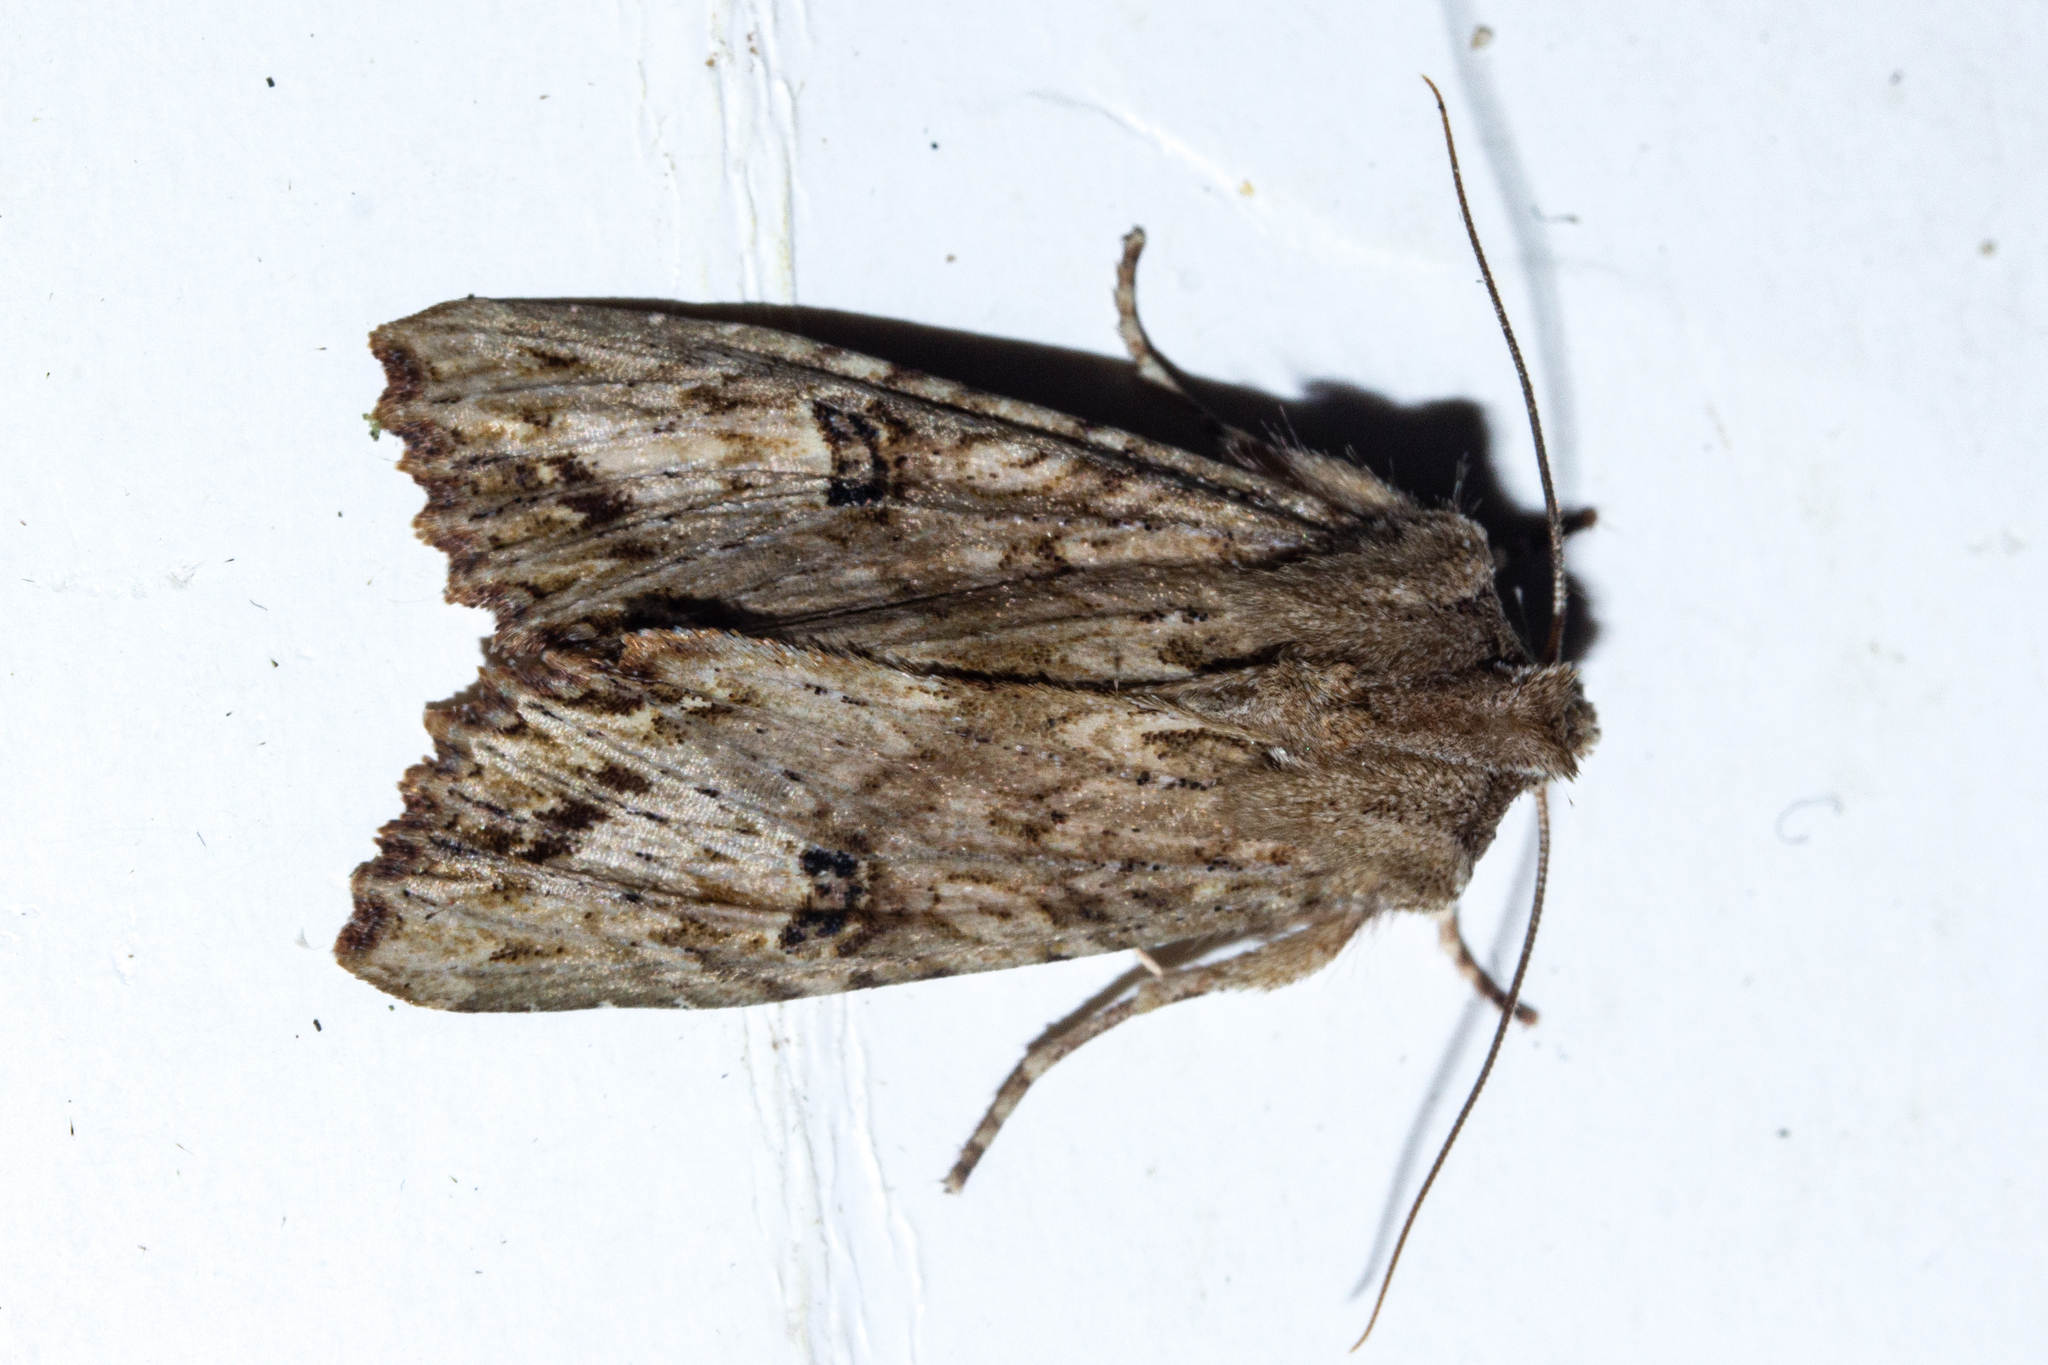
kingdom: Animalia
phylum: Arthropoda
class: Insecta
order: Lepidoptera
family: Noctuidae
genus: Meterana
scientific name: Meterana pascoei
